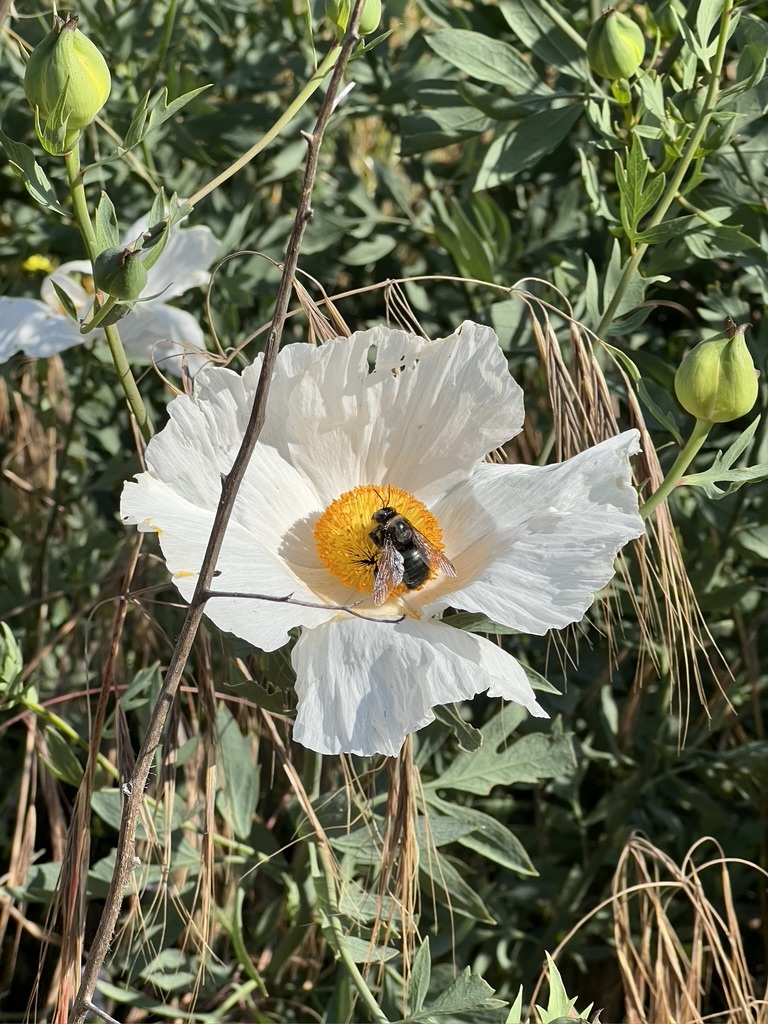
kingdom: Animalia
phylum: Arthropoda
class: Insecta
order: Hymenoptera
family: Apidae
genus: Xylocopa
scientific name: Xylocopa californica
